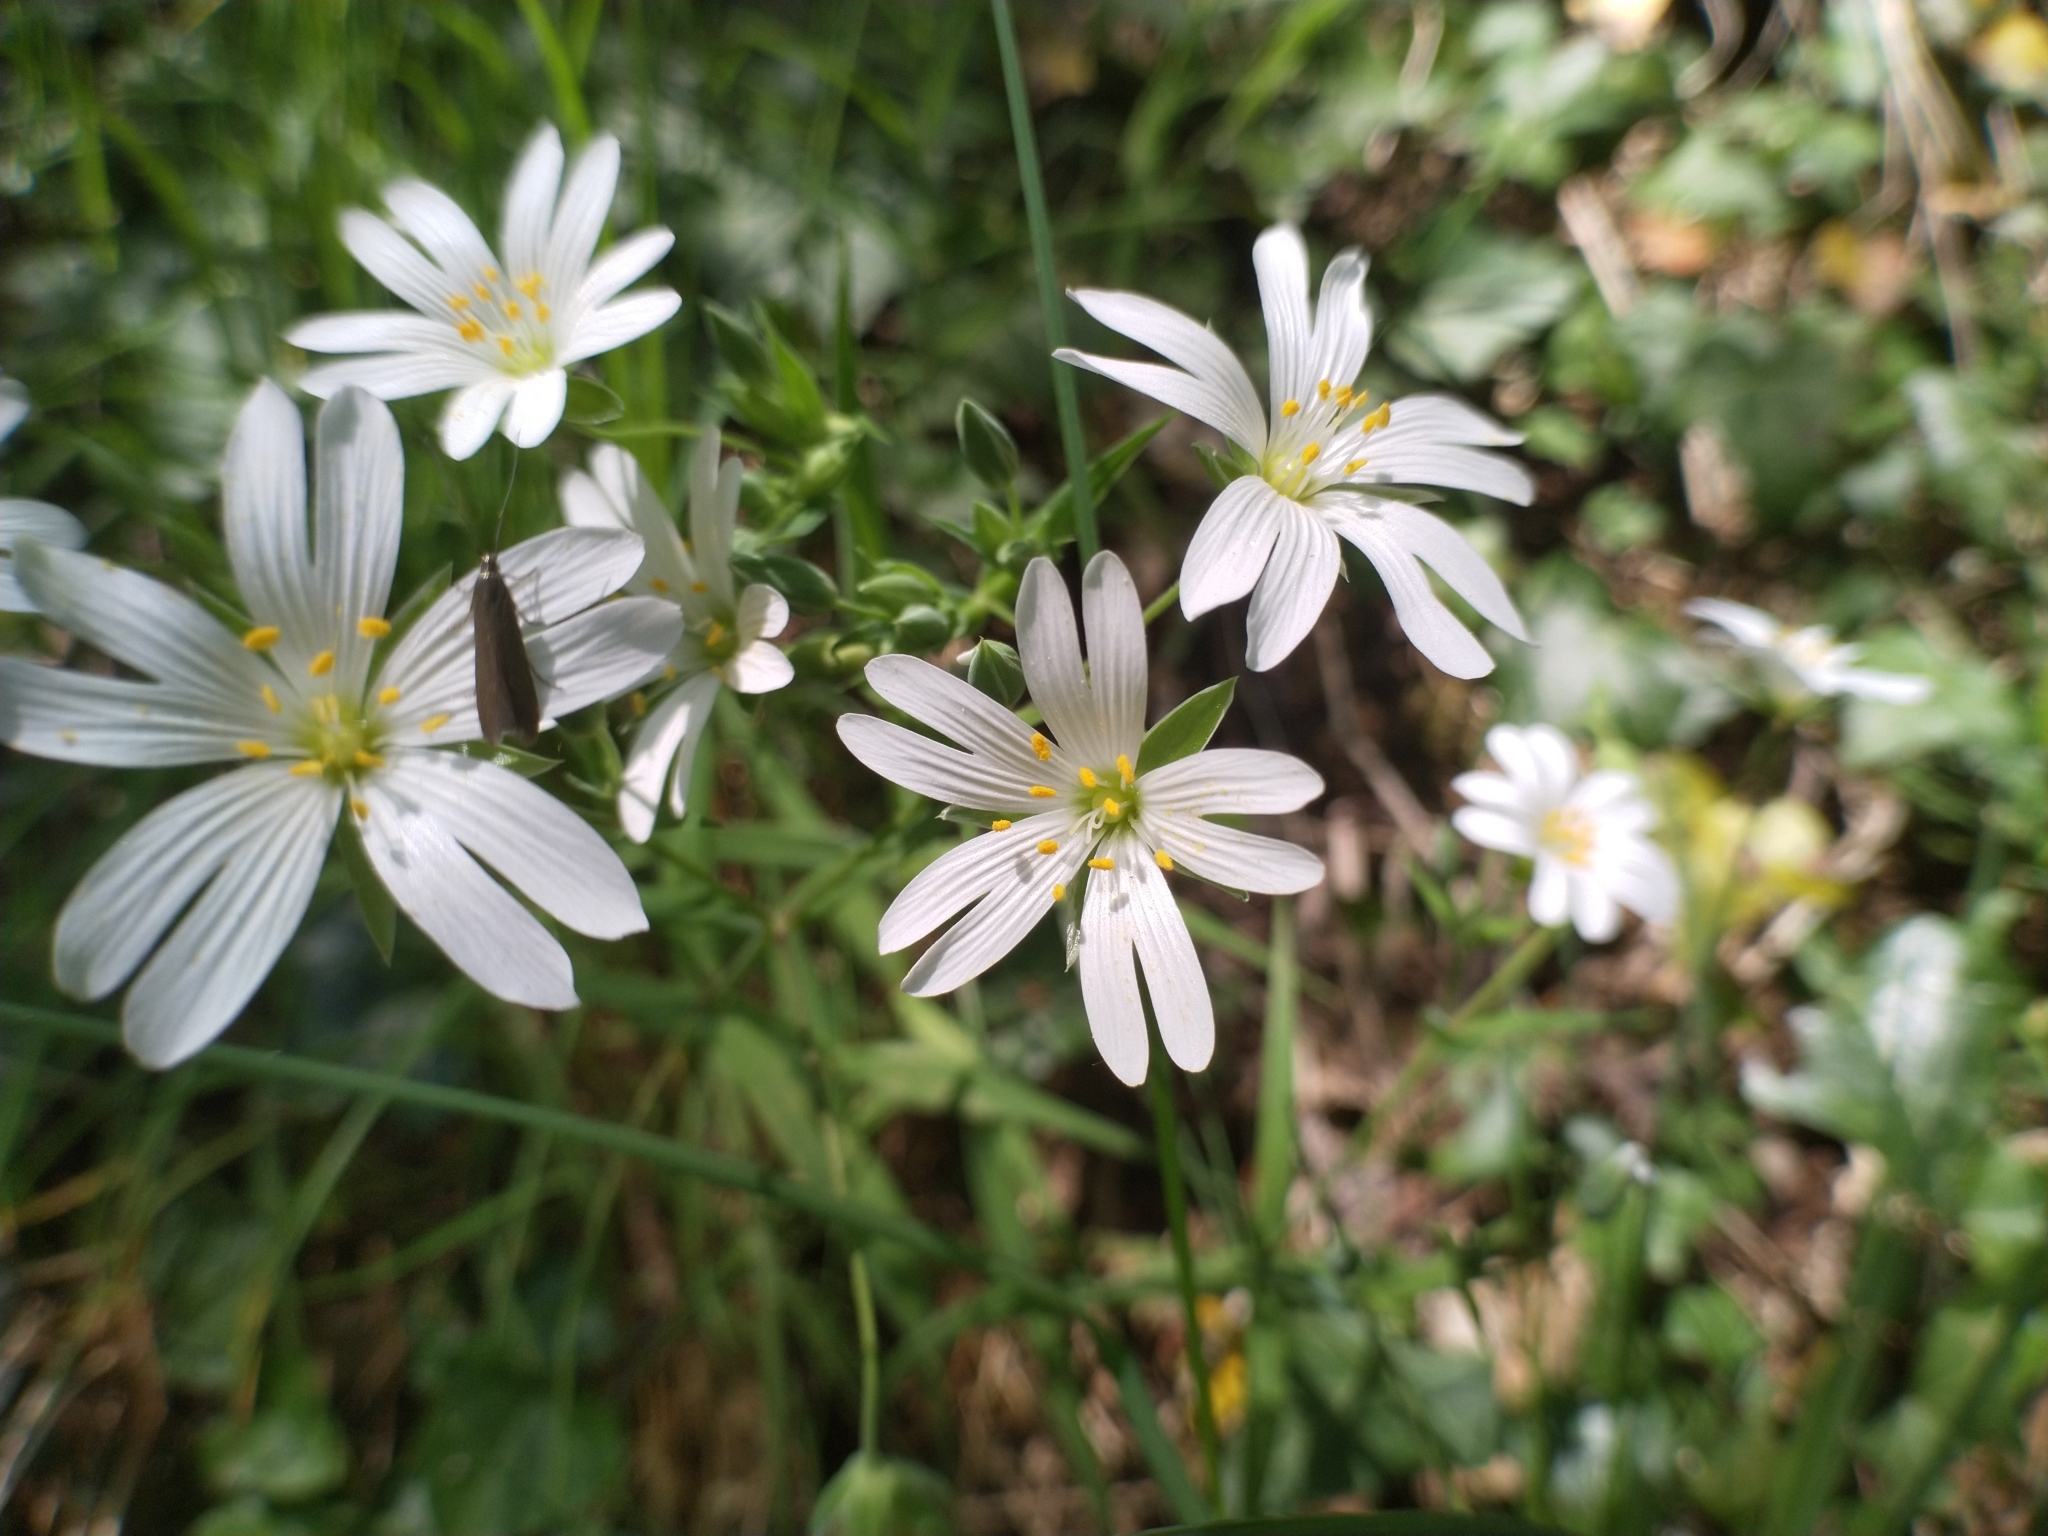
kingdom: Plantae
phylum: Tracheophyta
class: Magnoliopsida
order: Caryophyllales
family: Caryophyllaceae
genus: Rabelera
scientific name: Rabelera holostea
